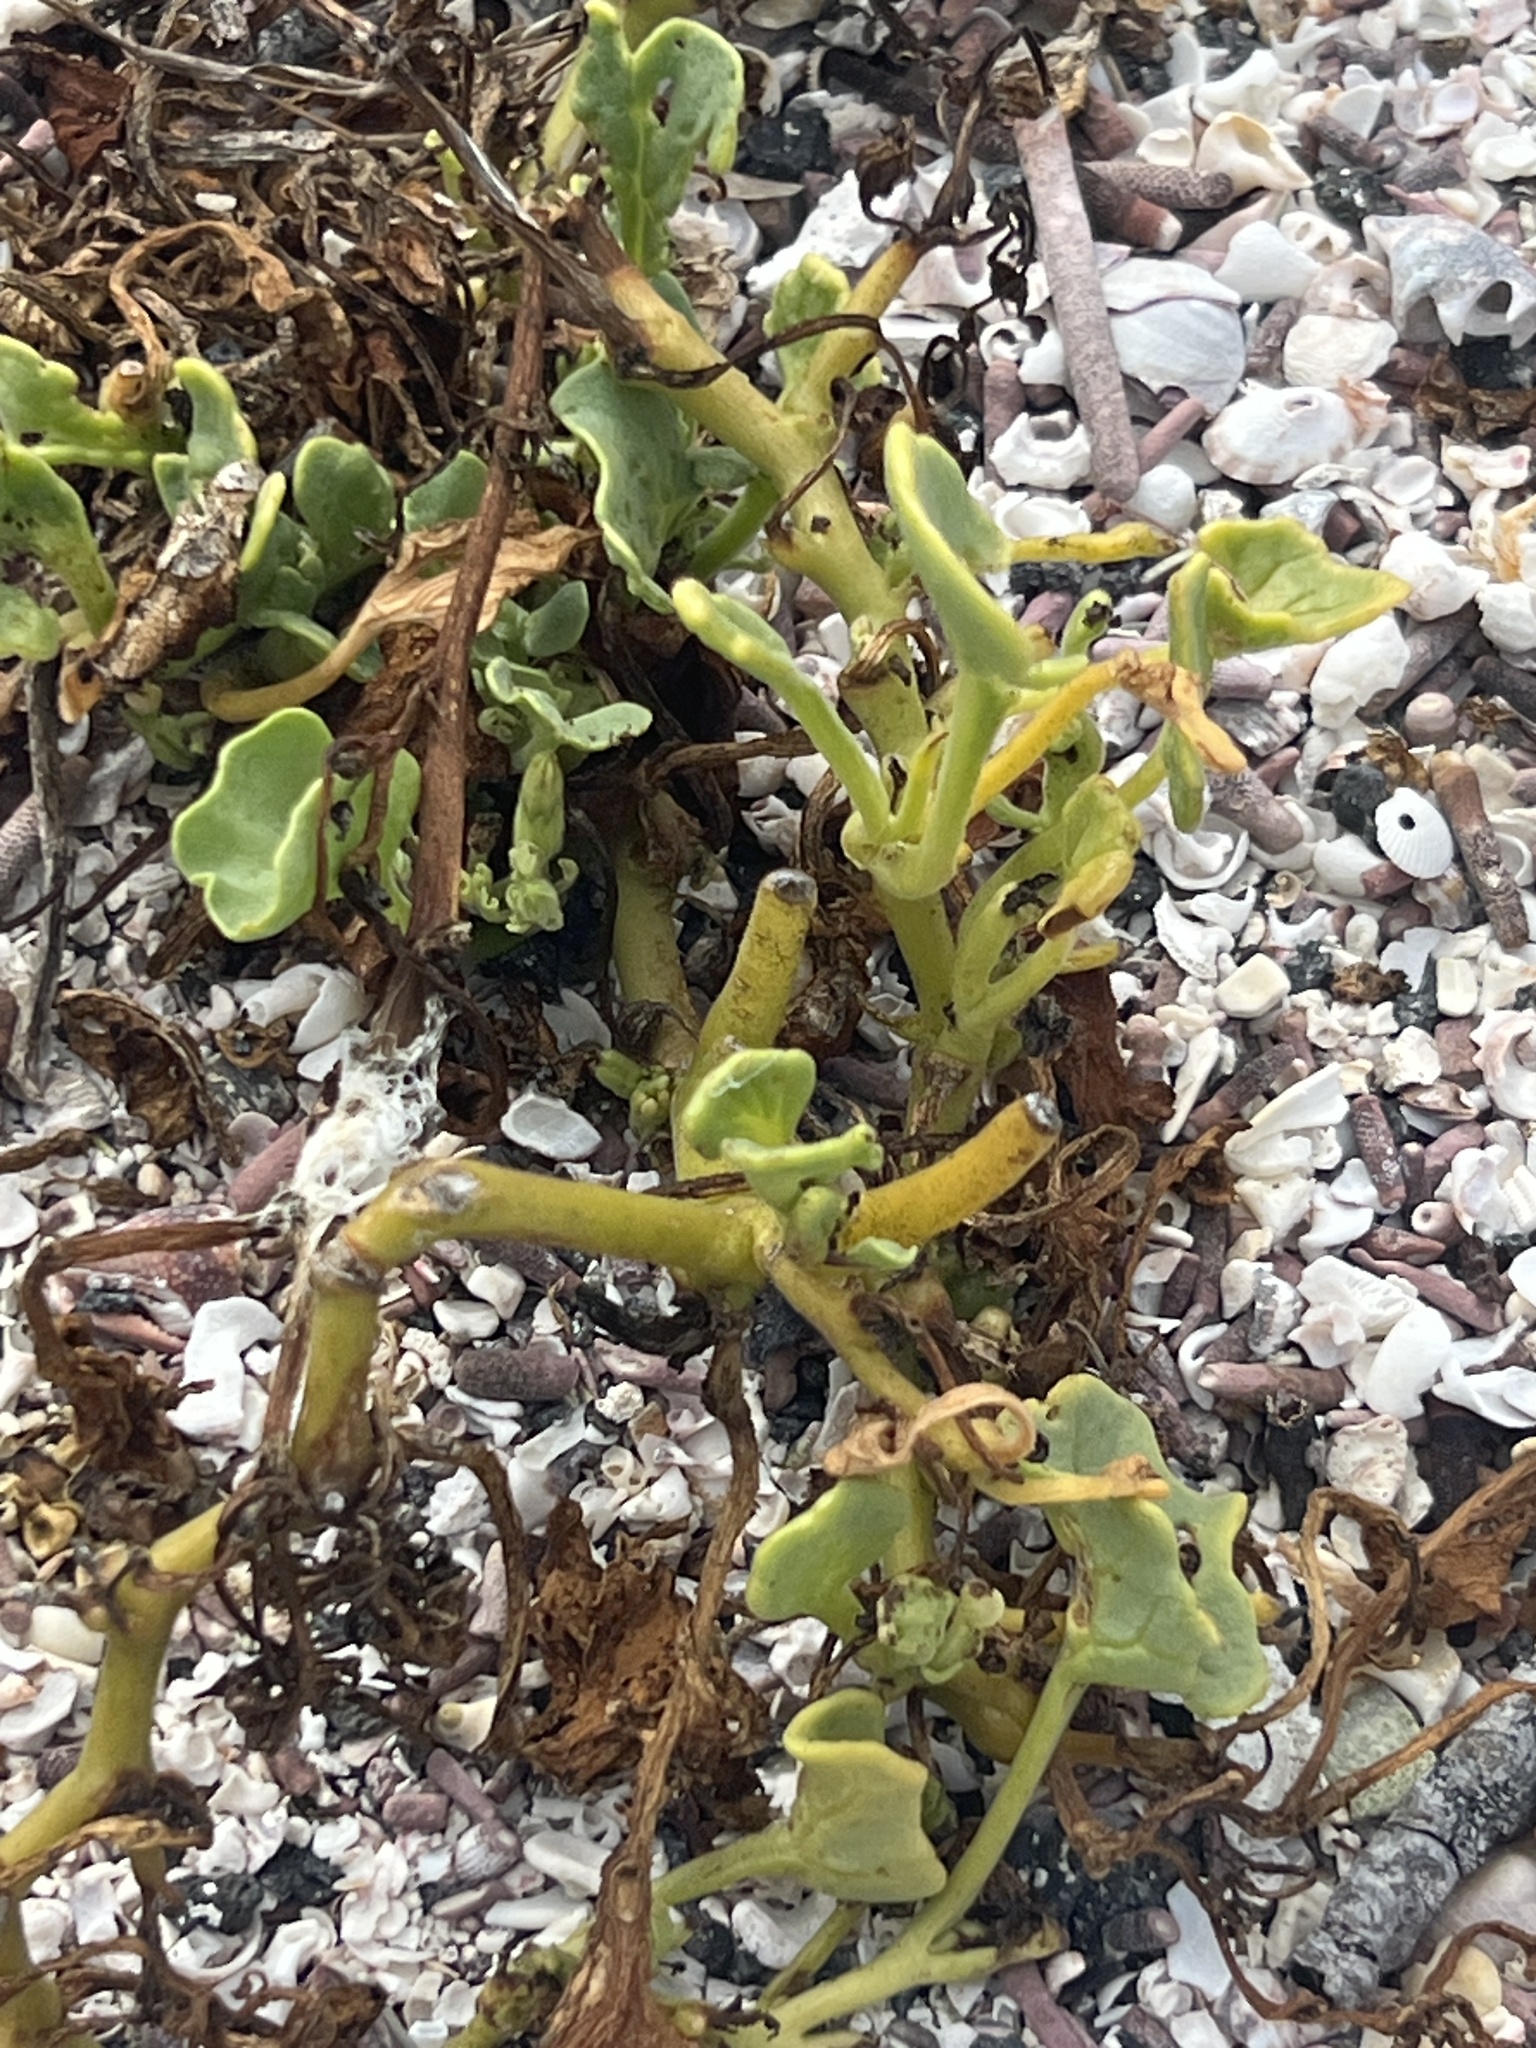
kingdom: Plantae
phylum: Tracheophyta
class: Magnoliopsida
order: Solanales
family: Solanaceae
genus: Exodeconus
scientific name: Exodeconus miersii
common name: Galapagos shore petunia
